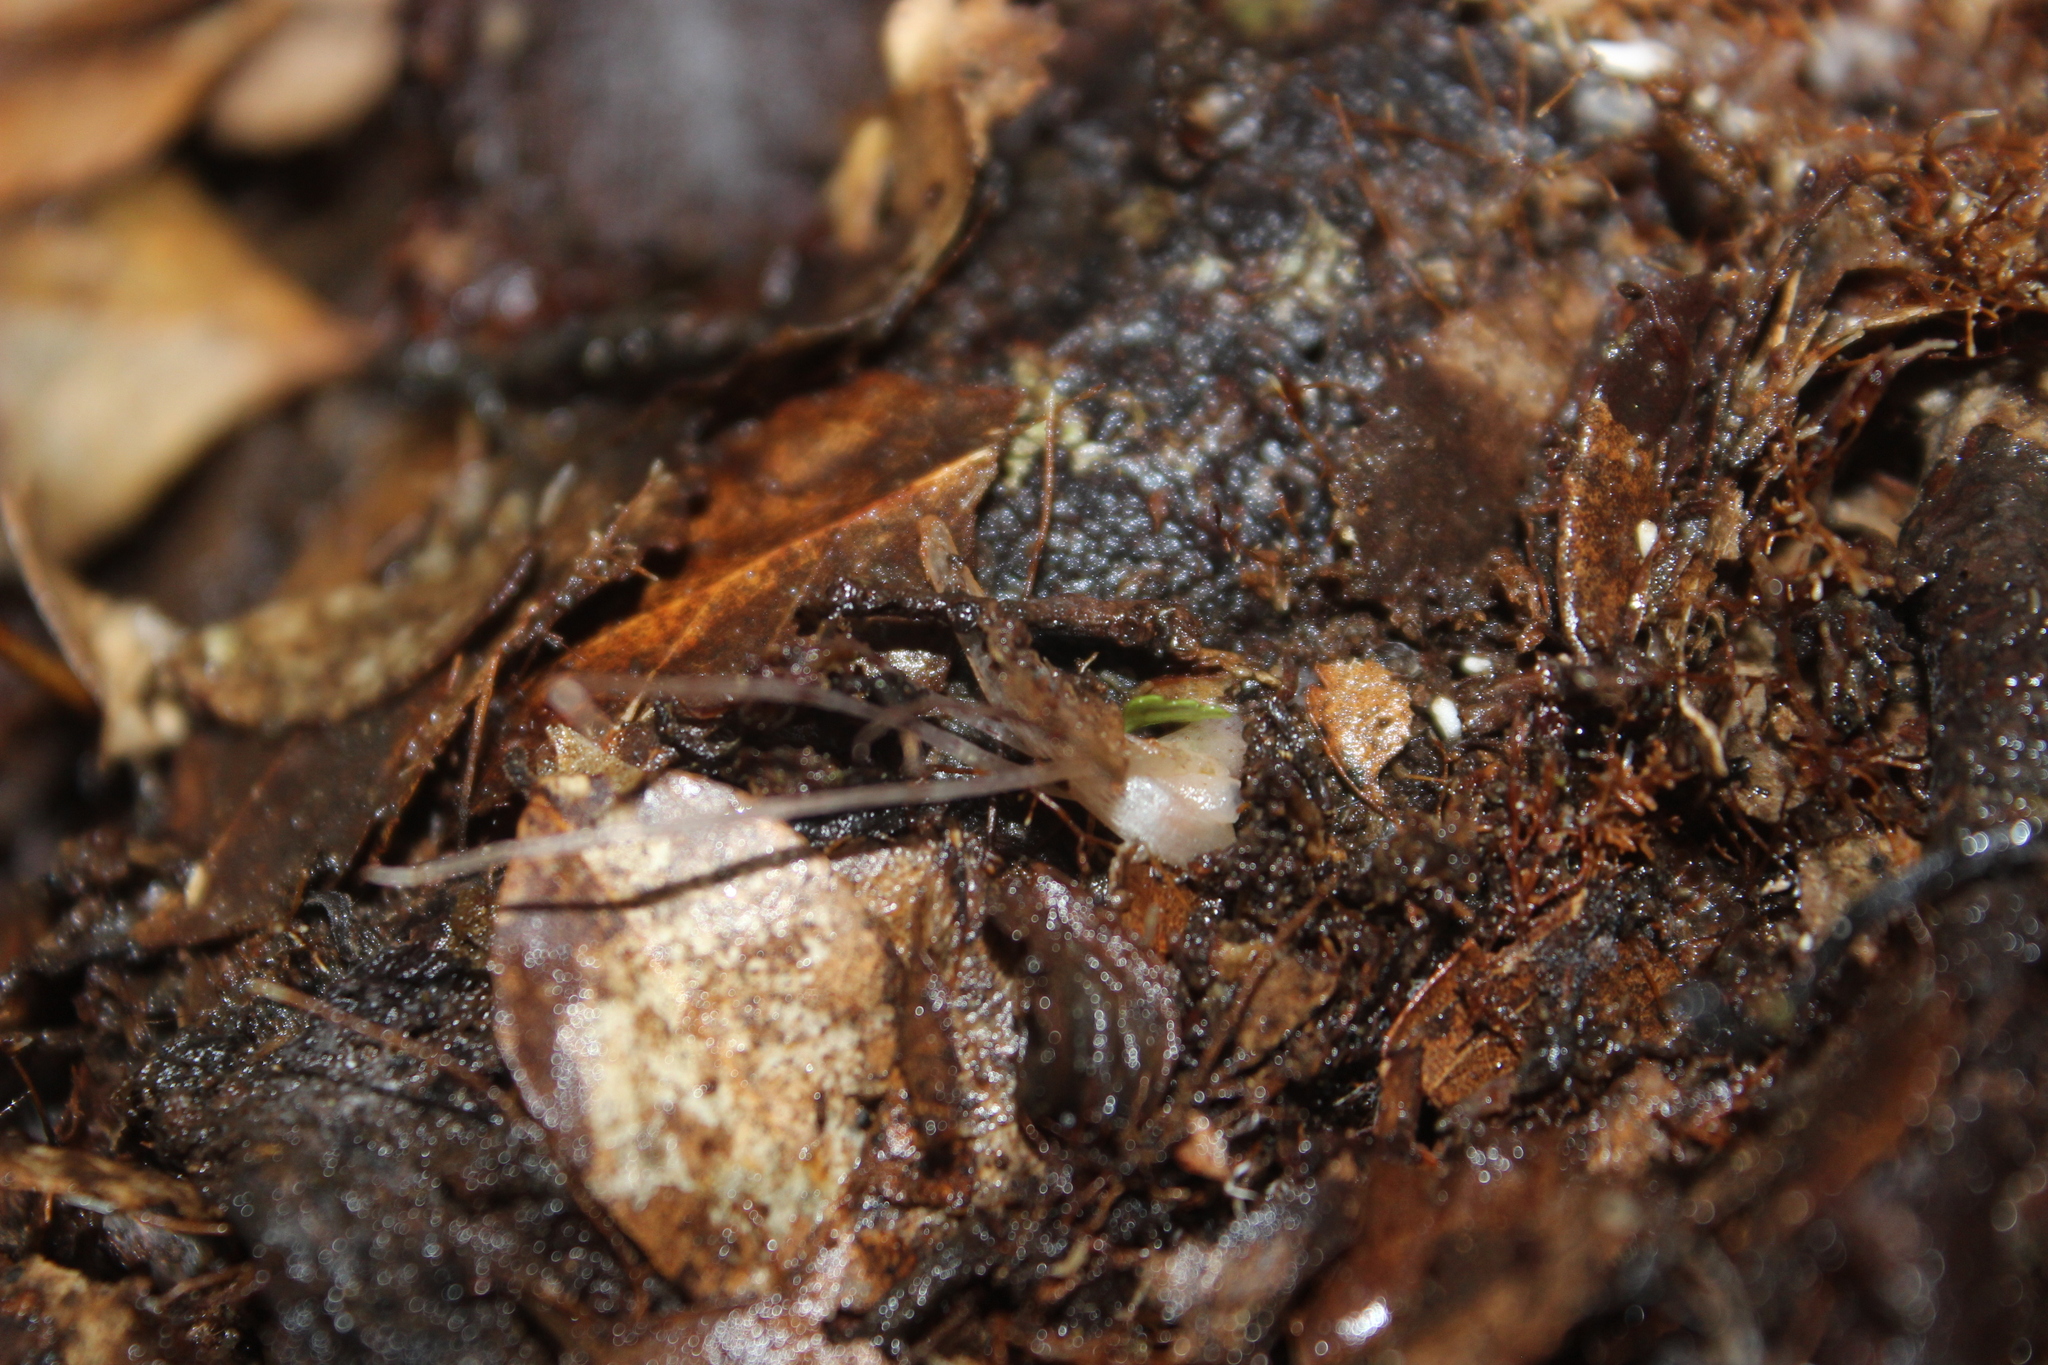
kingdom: Plantae
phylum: Tracheophyta
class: Liliopsida
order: Asparagales
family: Orchidaceae
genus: Corybas
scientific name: Corybas cryptanthus
